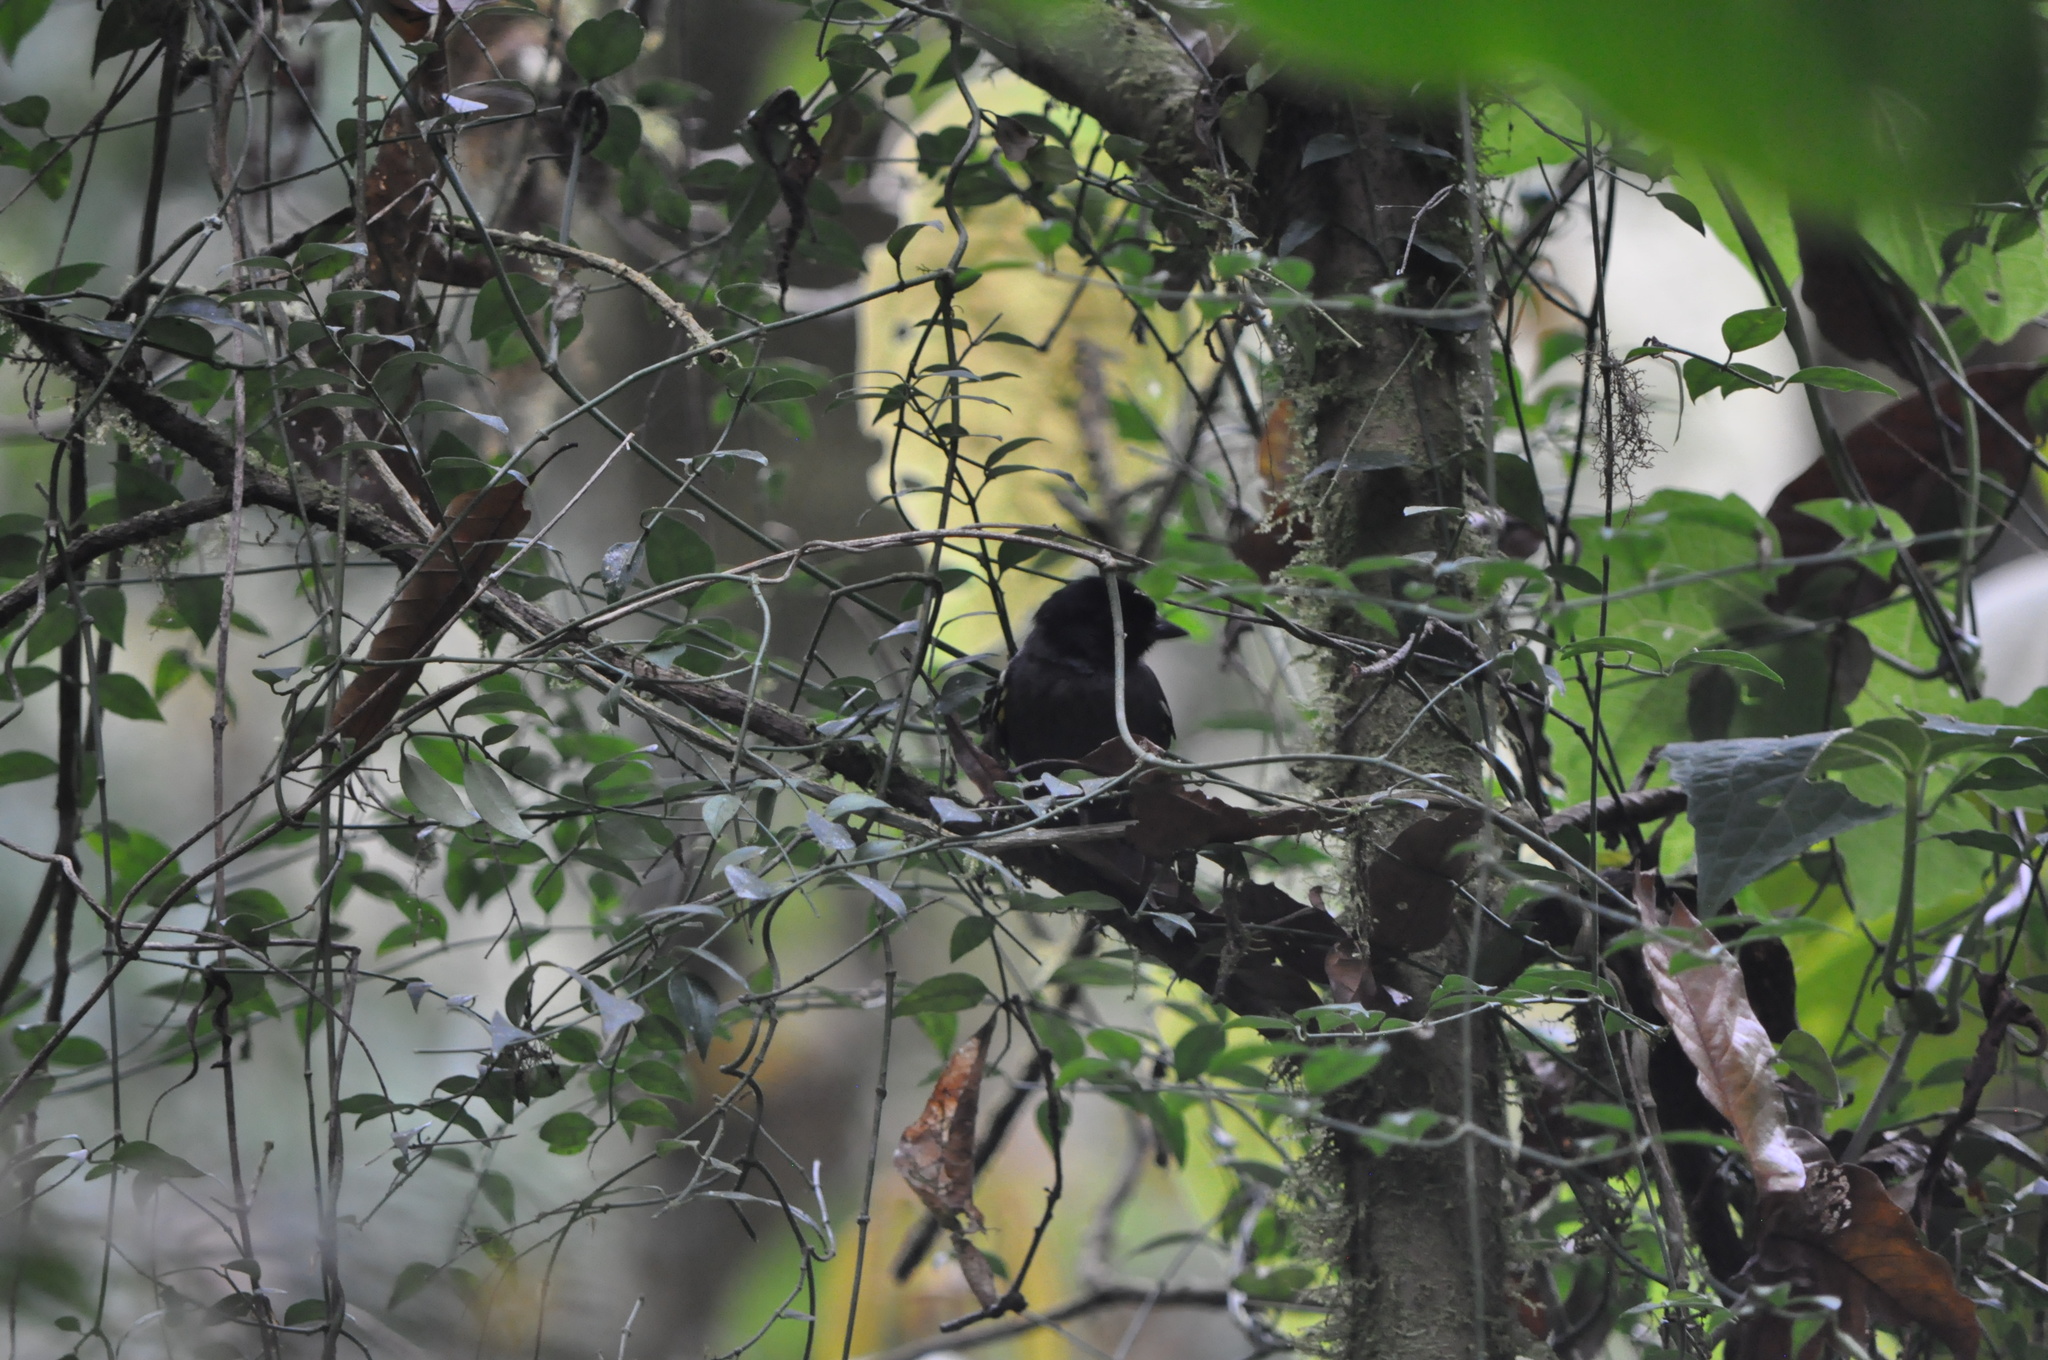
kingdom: Animalia
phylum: Chordata
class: Aves
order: Passeriformes
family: Passerellidae
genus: Atlapetes
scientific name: Atlapetes tibialis
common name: Yellow-thighed brushfinch
